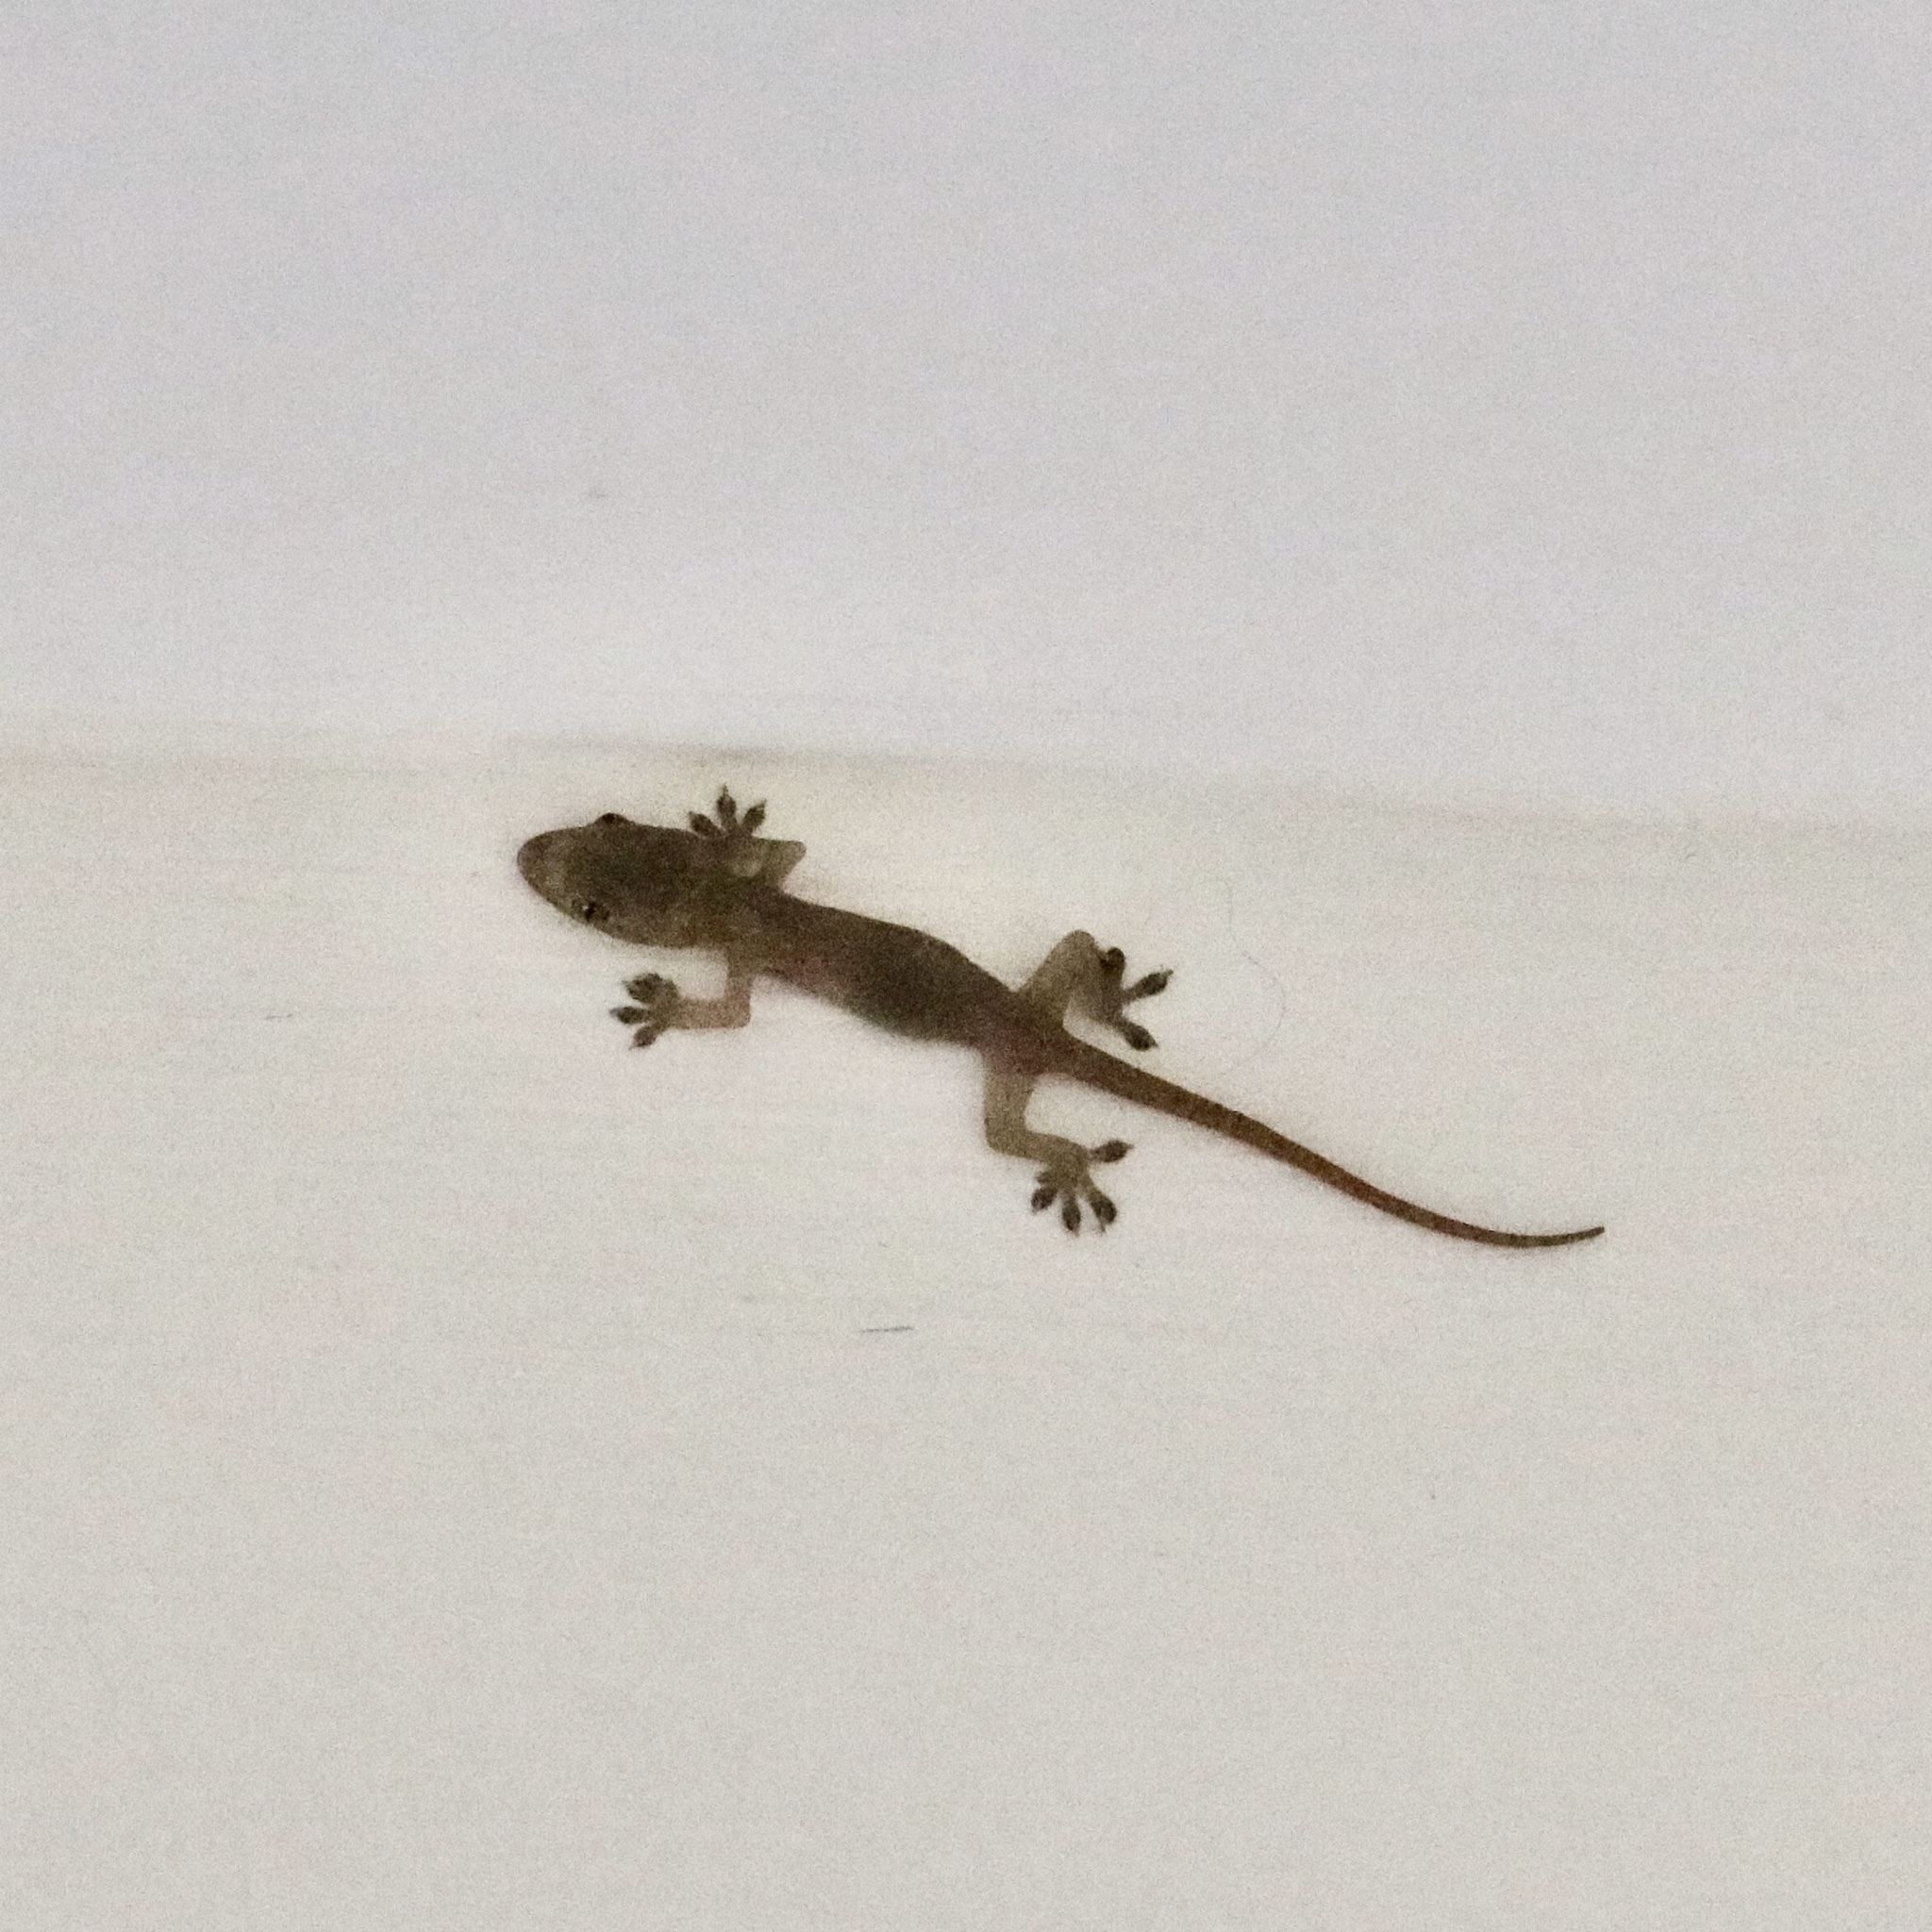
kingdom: Animalia
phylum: Chordata
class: Squamata
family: Gekkonidae
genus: Hemidactylus
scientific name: Hemidactylus frenatus
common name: Common house gecko
